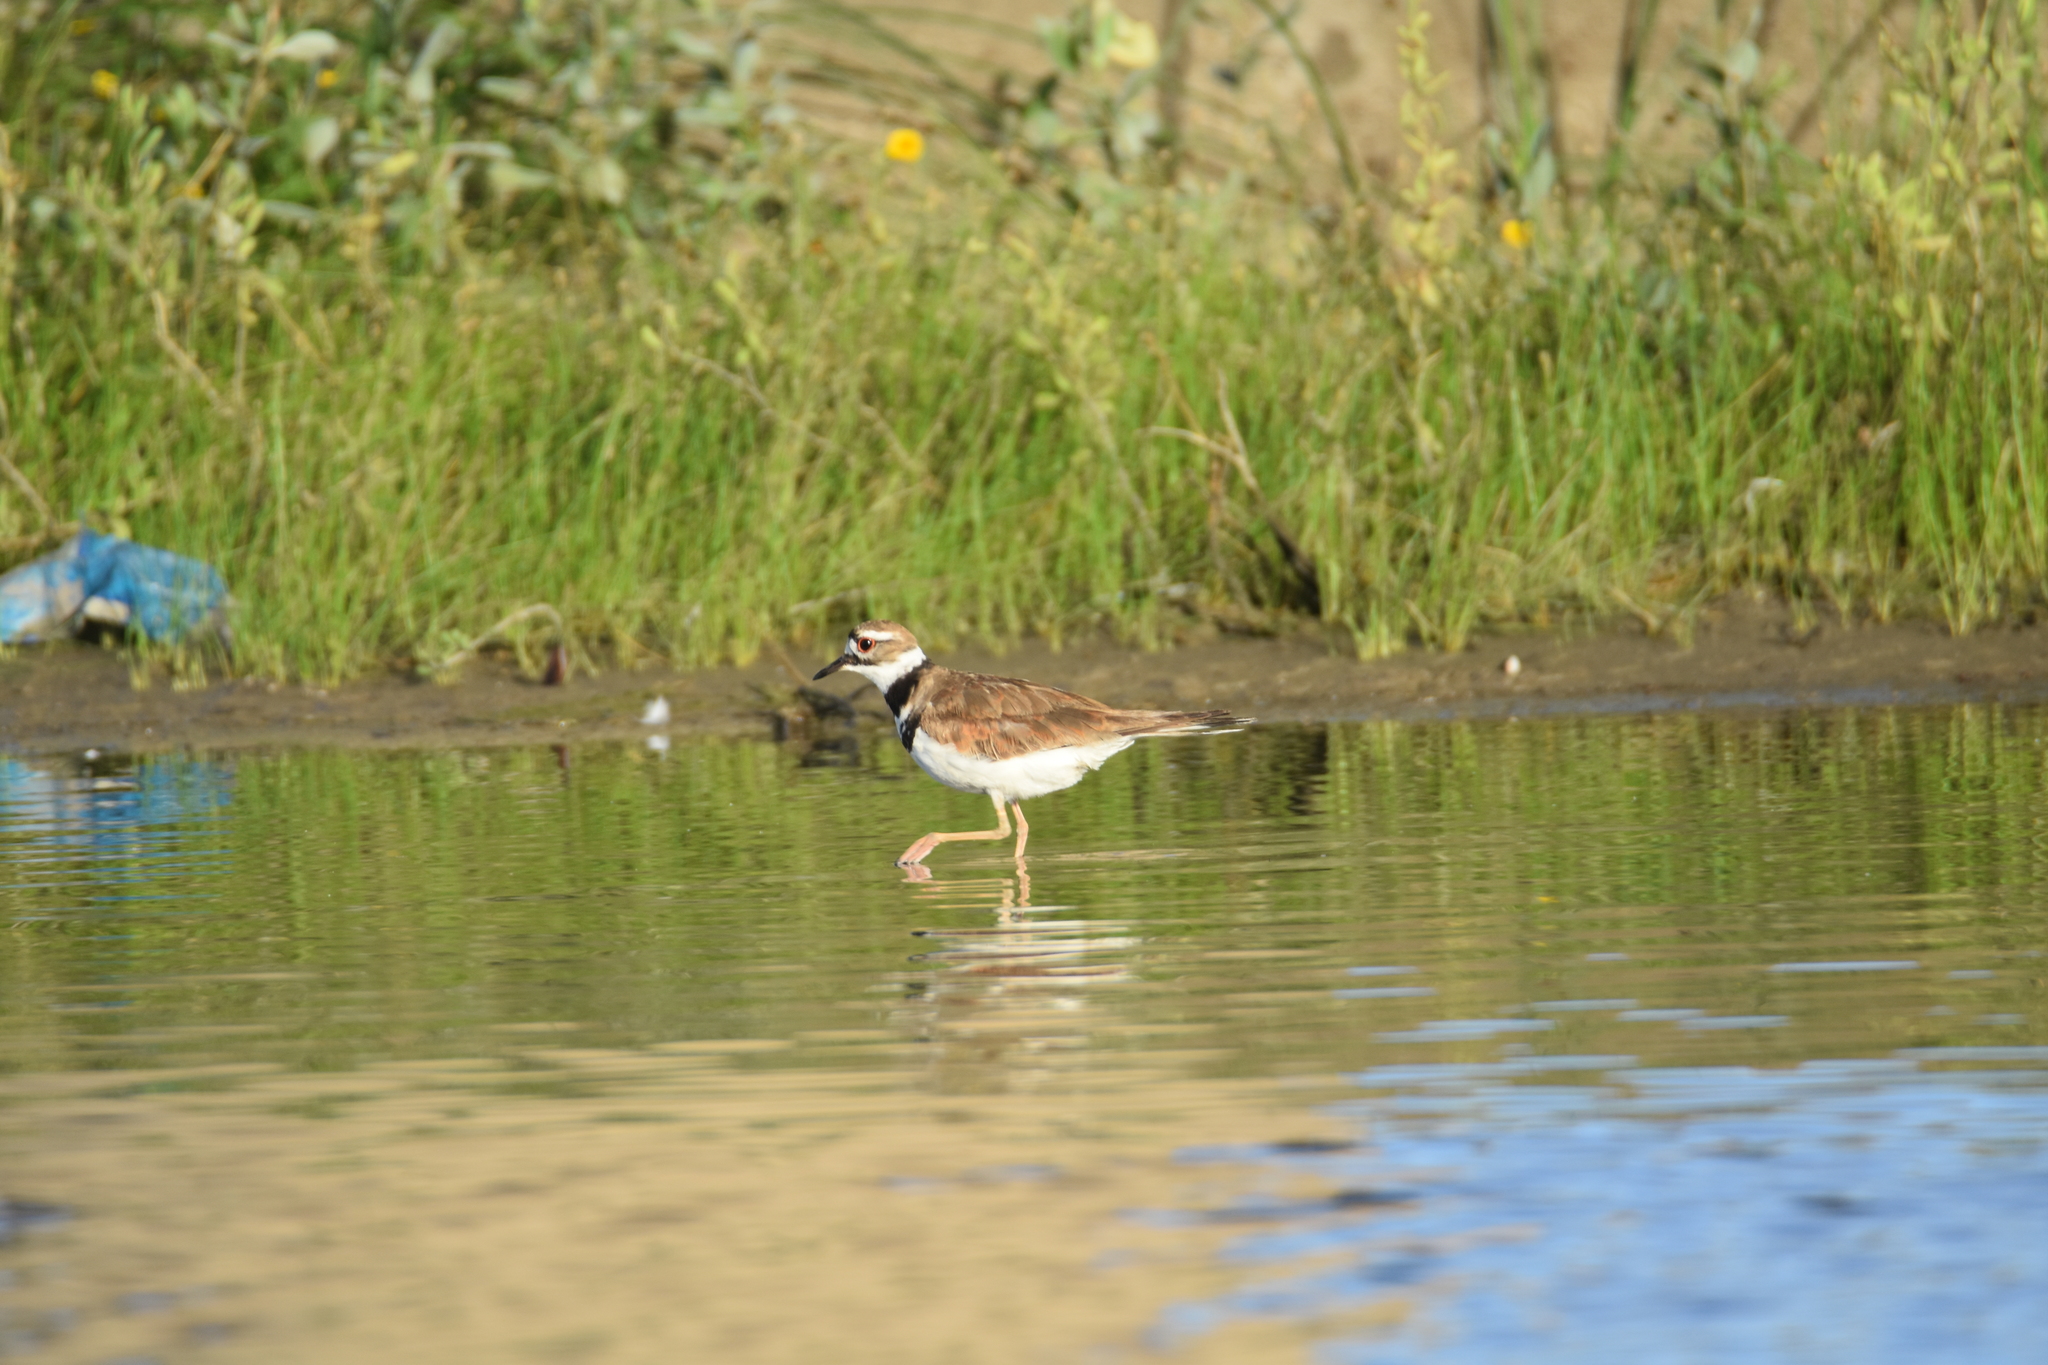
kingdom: Animalia
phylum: Chordata
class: Aves
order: Charadriiformes
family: Charadriidae
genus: Charadrius
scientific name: Charadrius vociferus
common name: Killdeer
